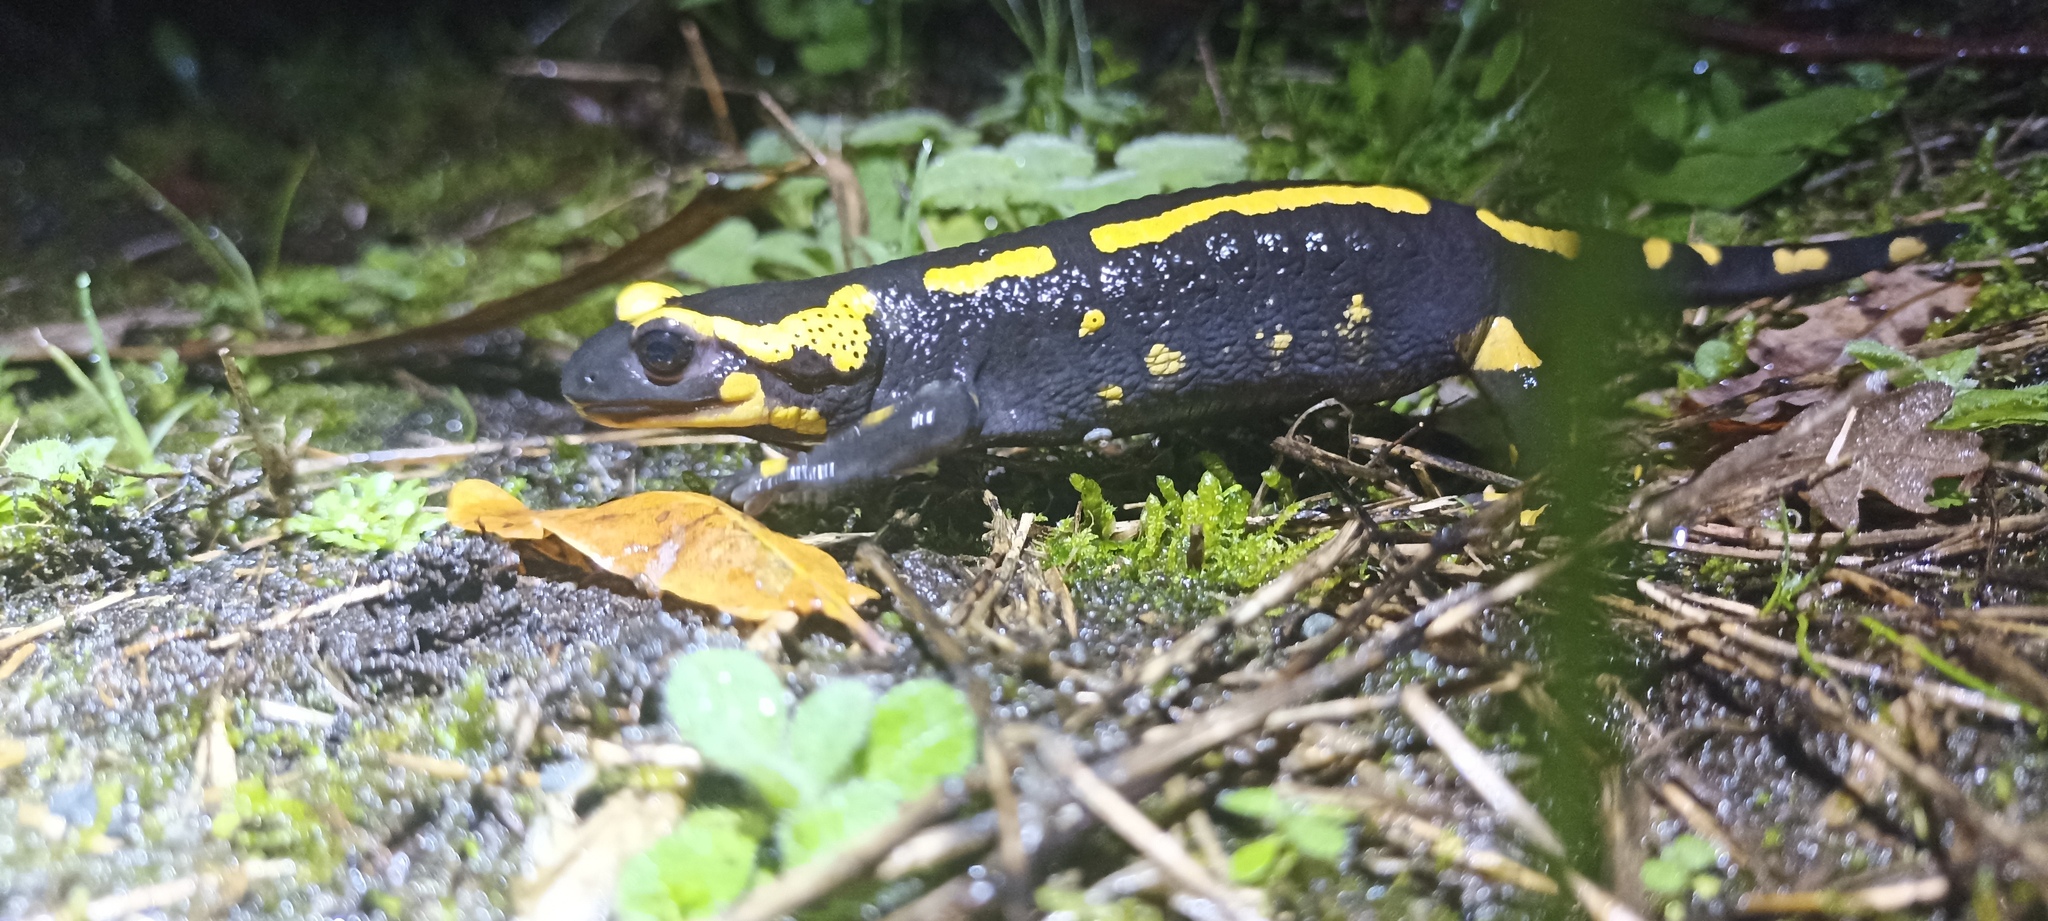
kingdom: Animalia
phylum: Chordata
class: Amphibia
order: Caudata
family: Salamandridae
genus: Salamandra
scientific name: Salamandra salamandra
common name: Fire salamander
